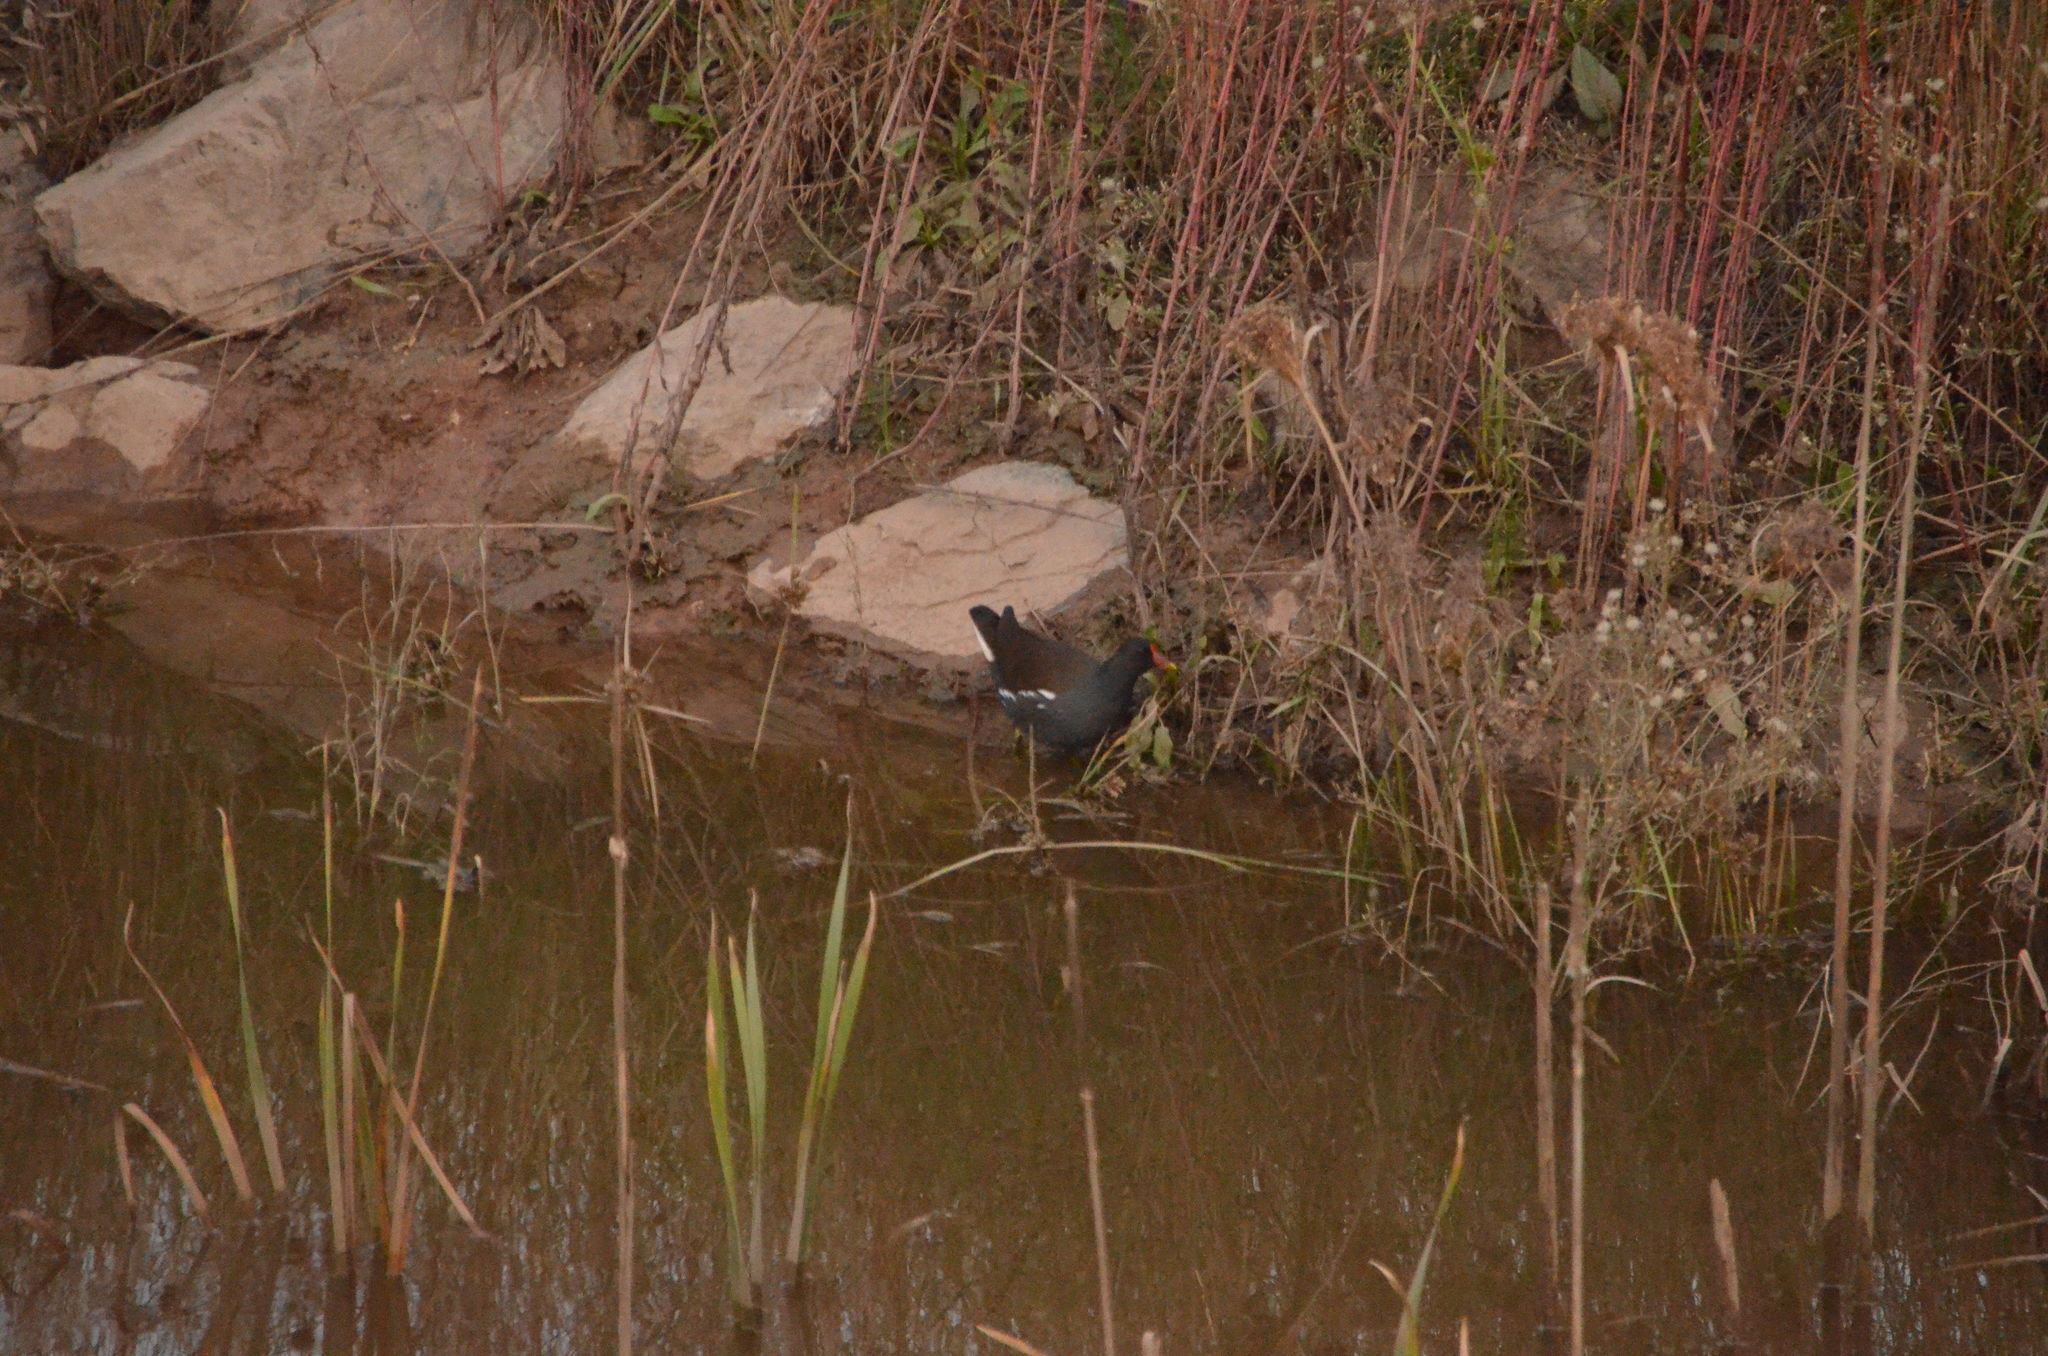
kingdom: Animalia
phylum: Chordata
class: Aves
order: Gruiformes
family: Rallidae
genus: Gallinula
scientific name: Gallinula chloropus
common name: Common moorhen
